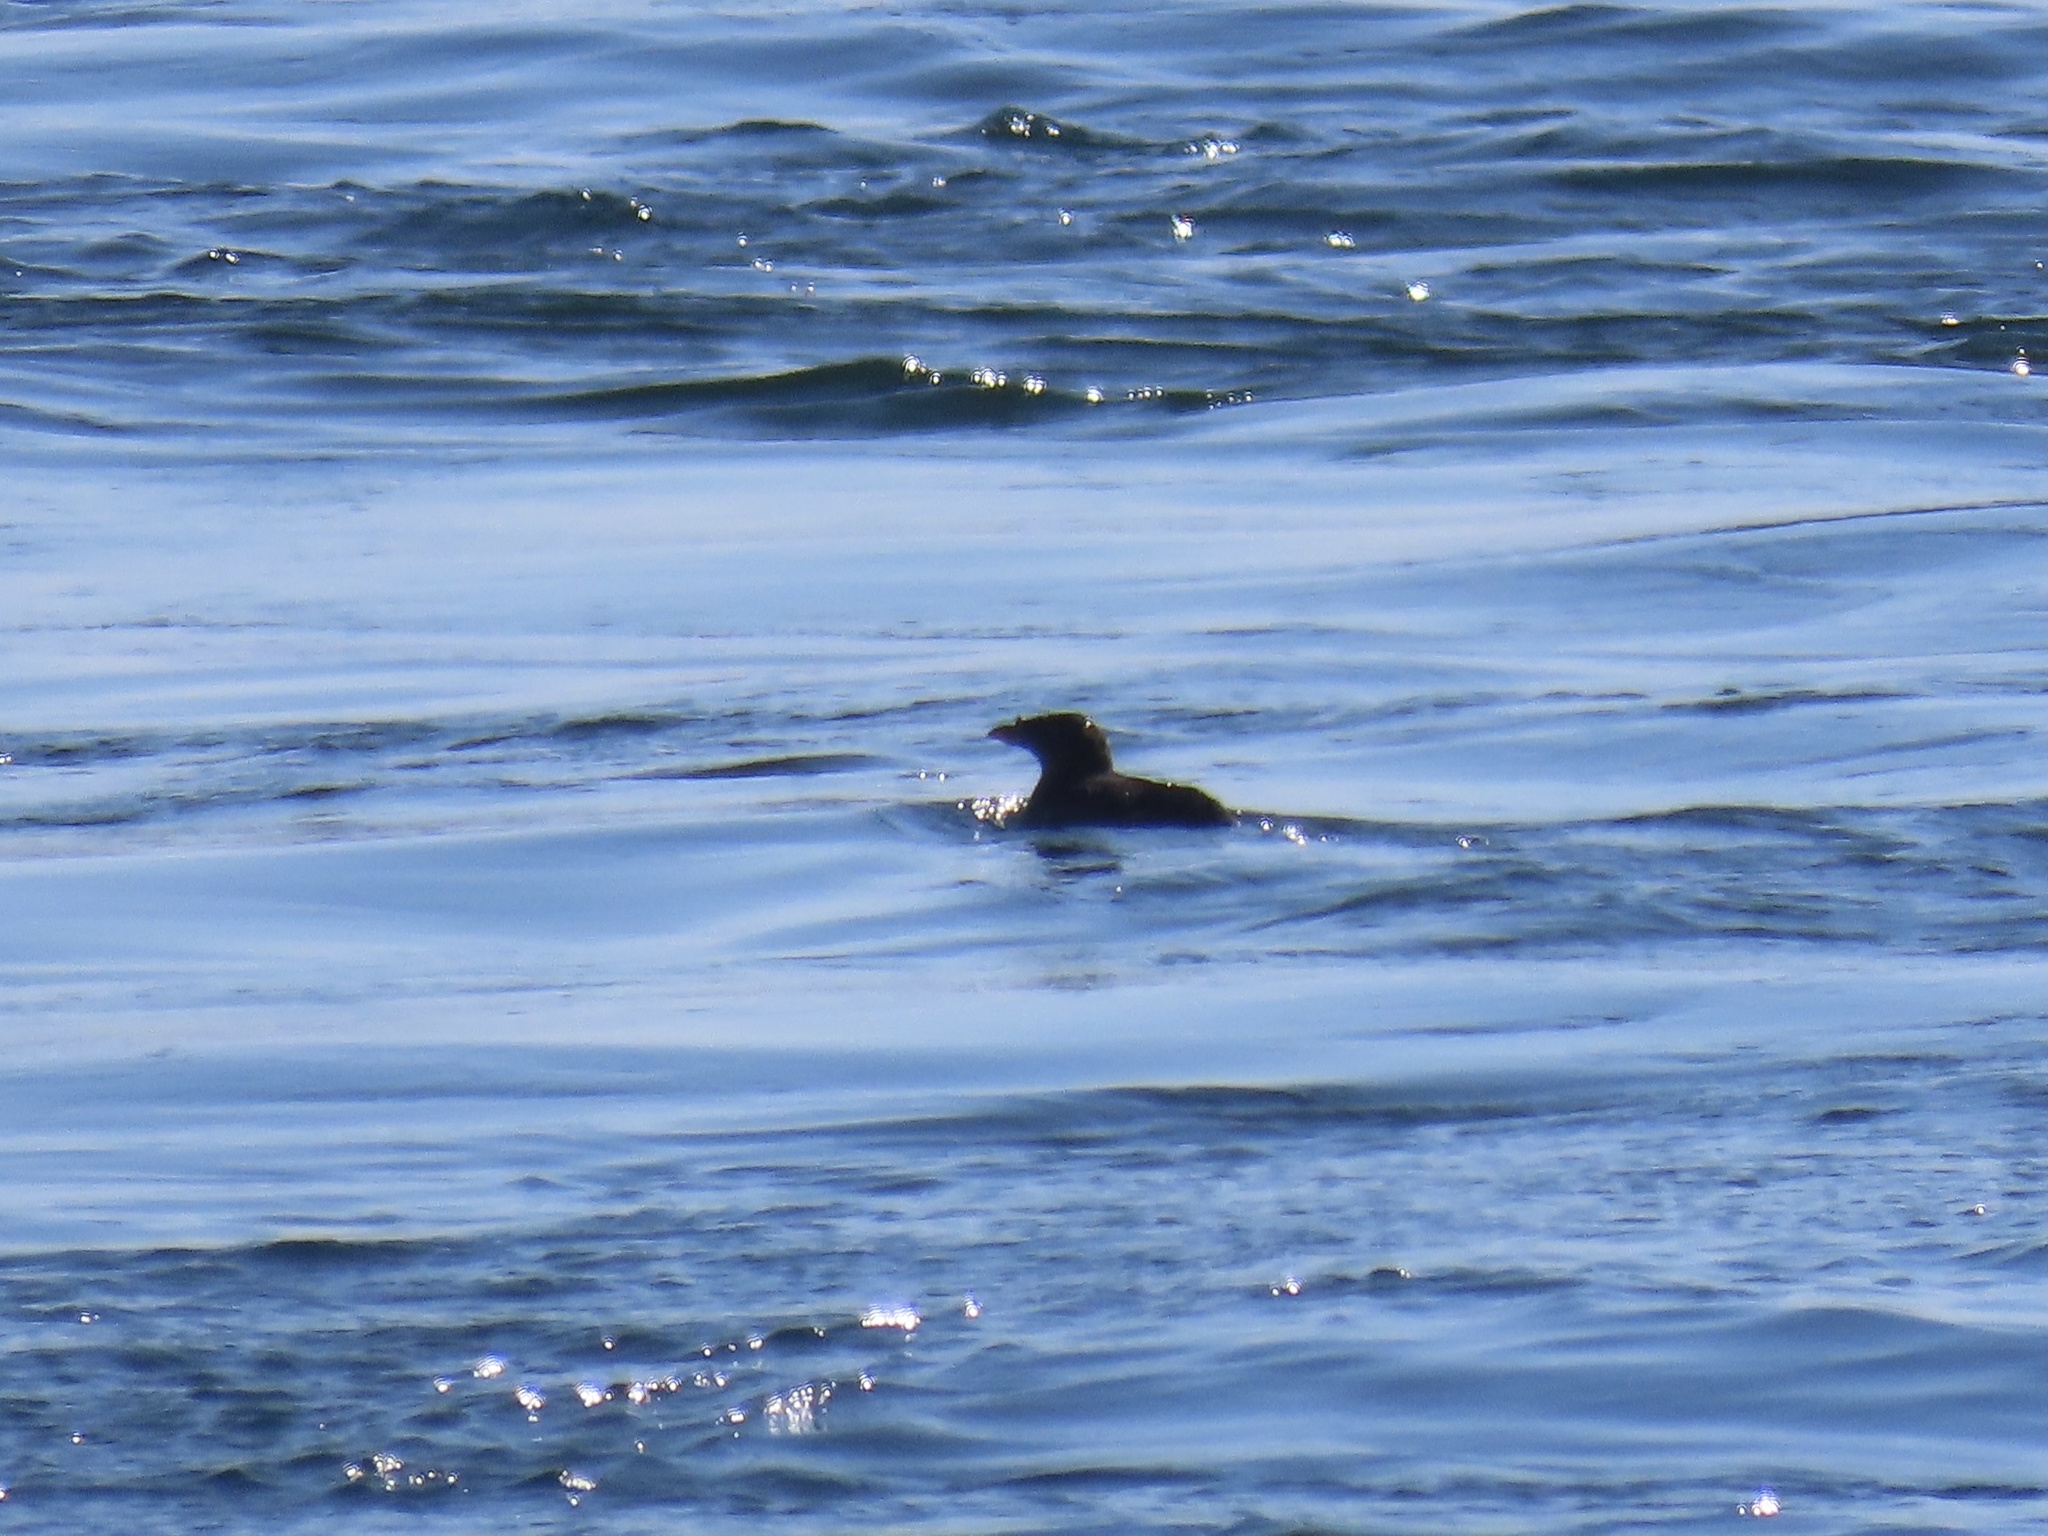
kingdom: Animalia
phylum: Chordata
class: Aves
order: Charadriiformes
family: Alcidae
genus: Cerorhinca
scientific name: Cerorhinca monocerata
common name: Rhinoceros auklet
